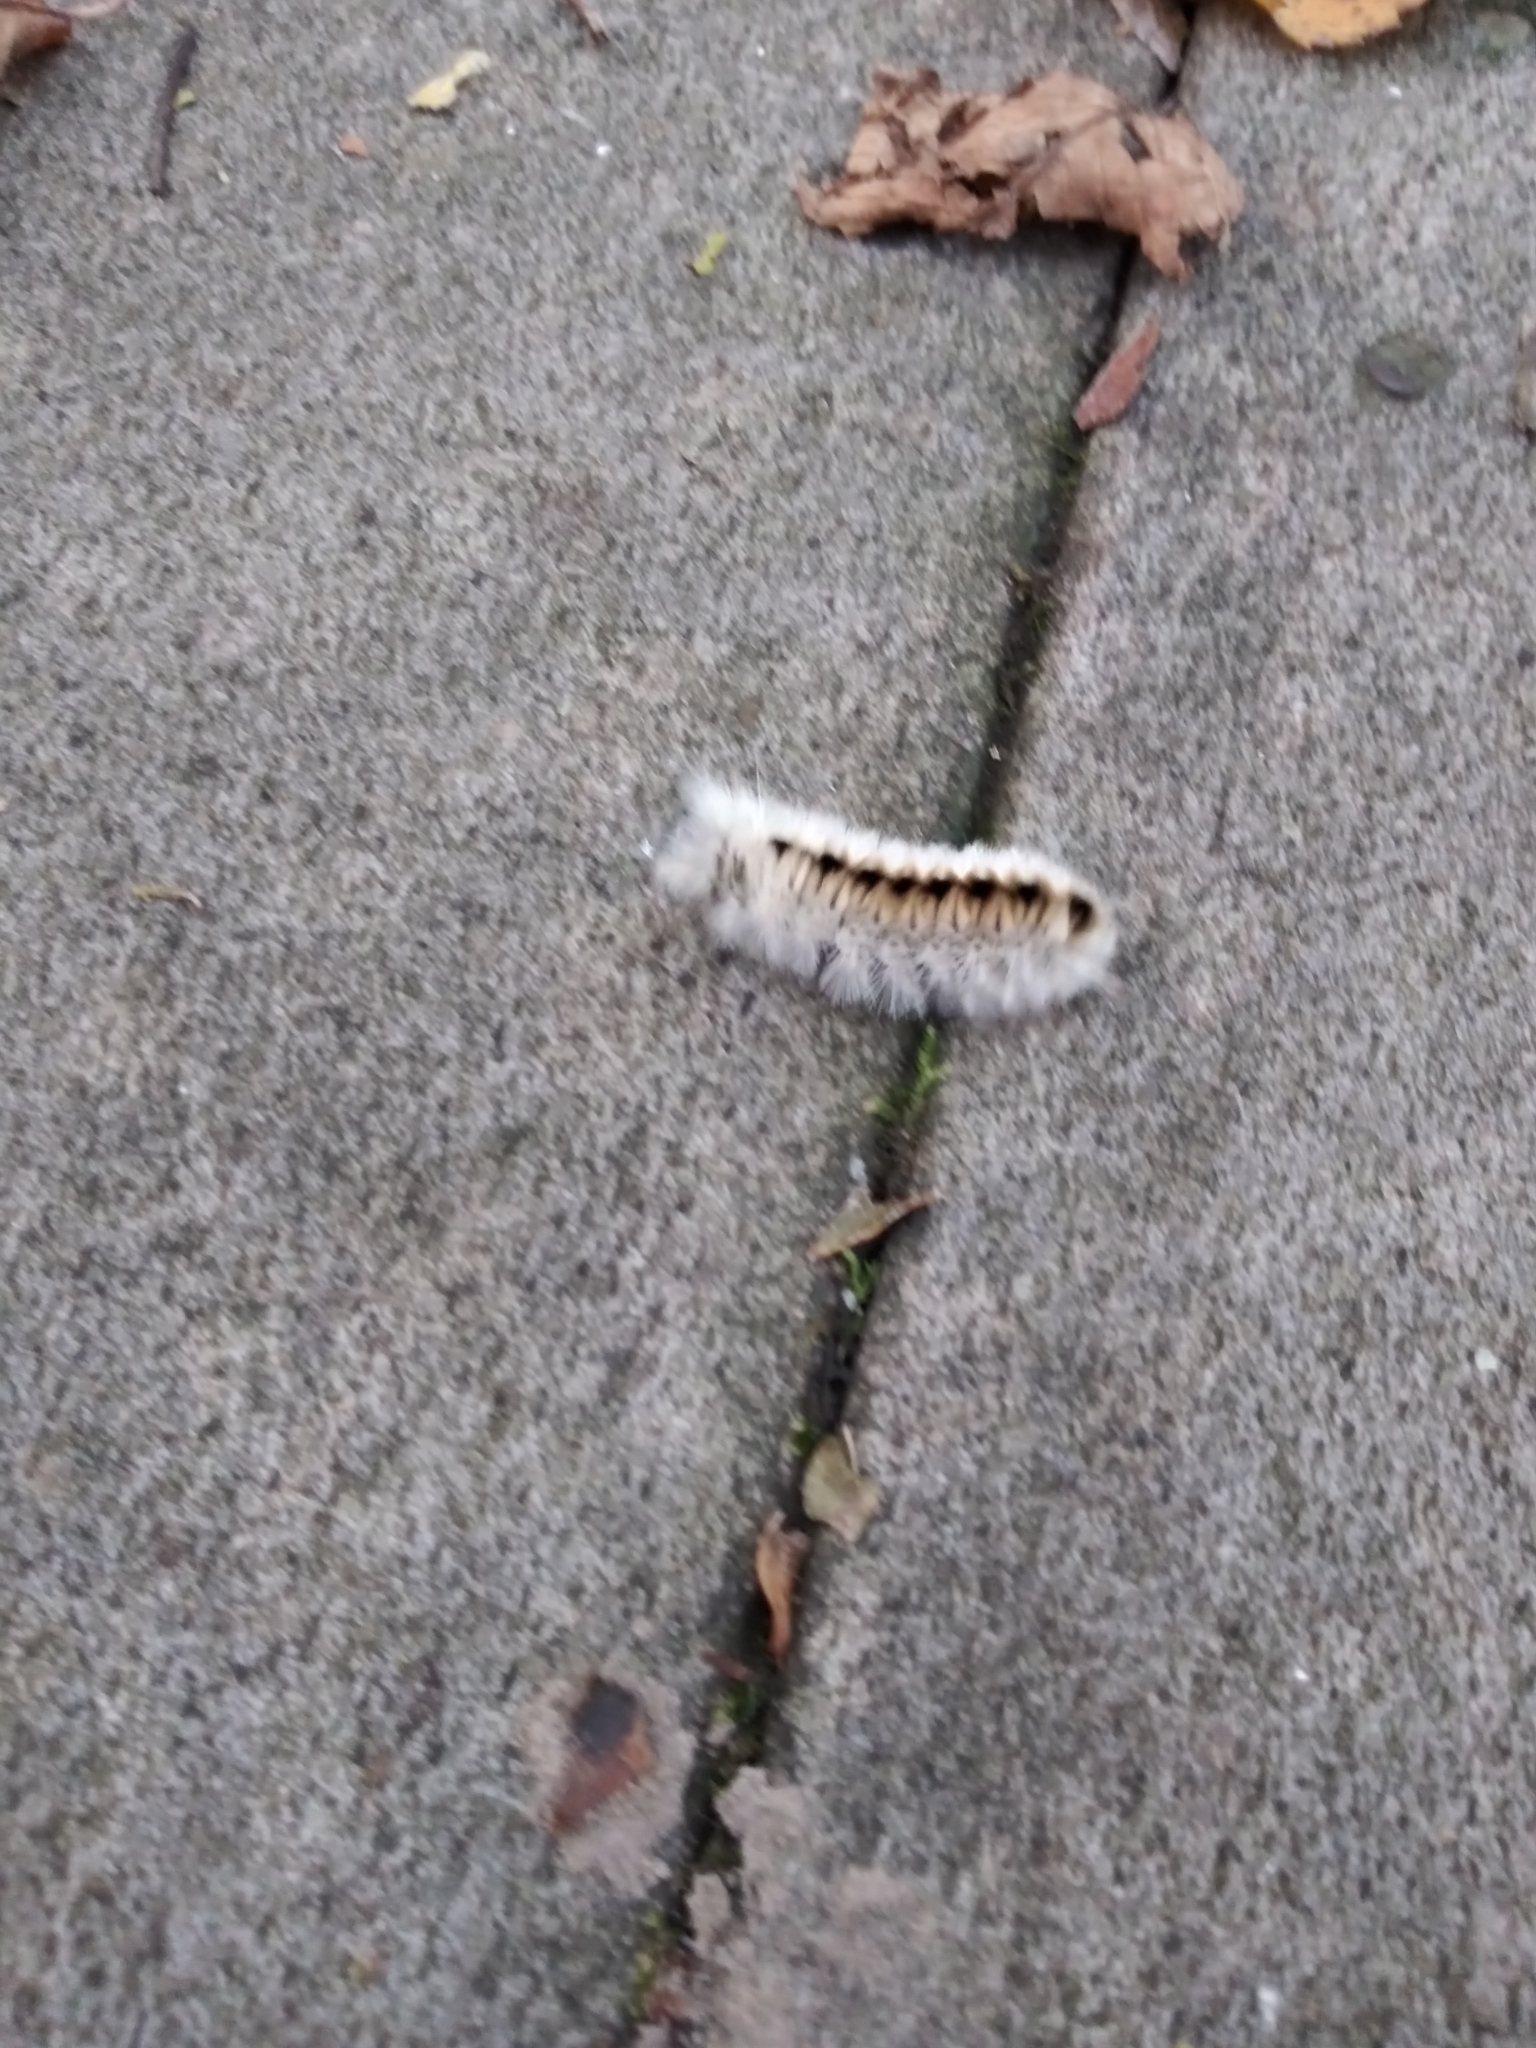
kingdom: Animalia
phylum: Arthropoda
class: Insecta
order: Lepidoptera
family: Erebidae
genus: Lophocampa
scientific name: Lophocampa caryae
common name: Hickory tussock moth
